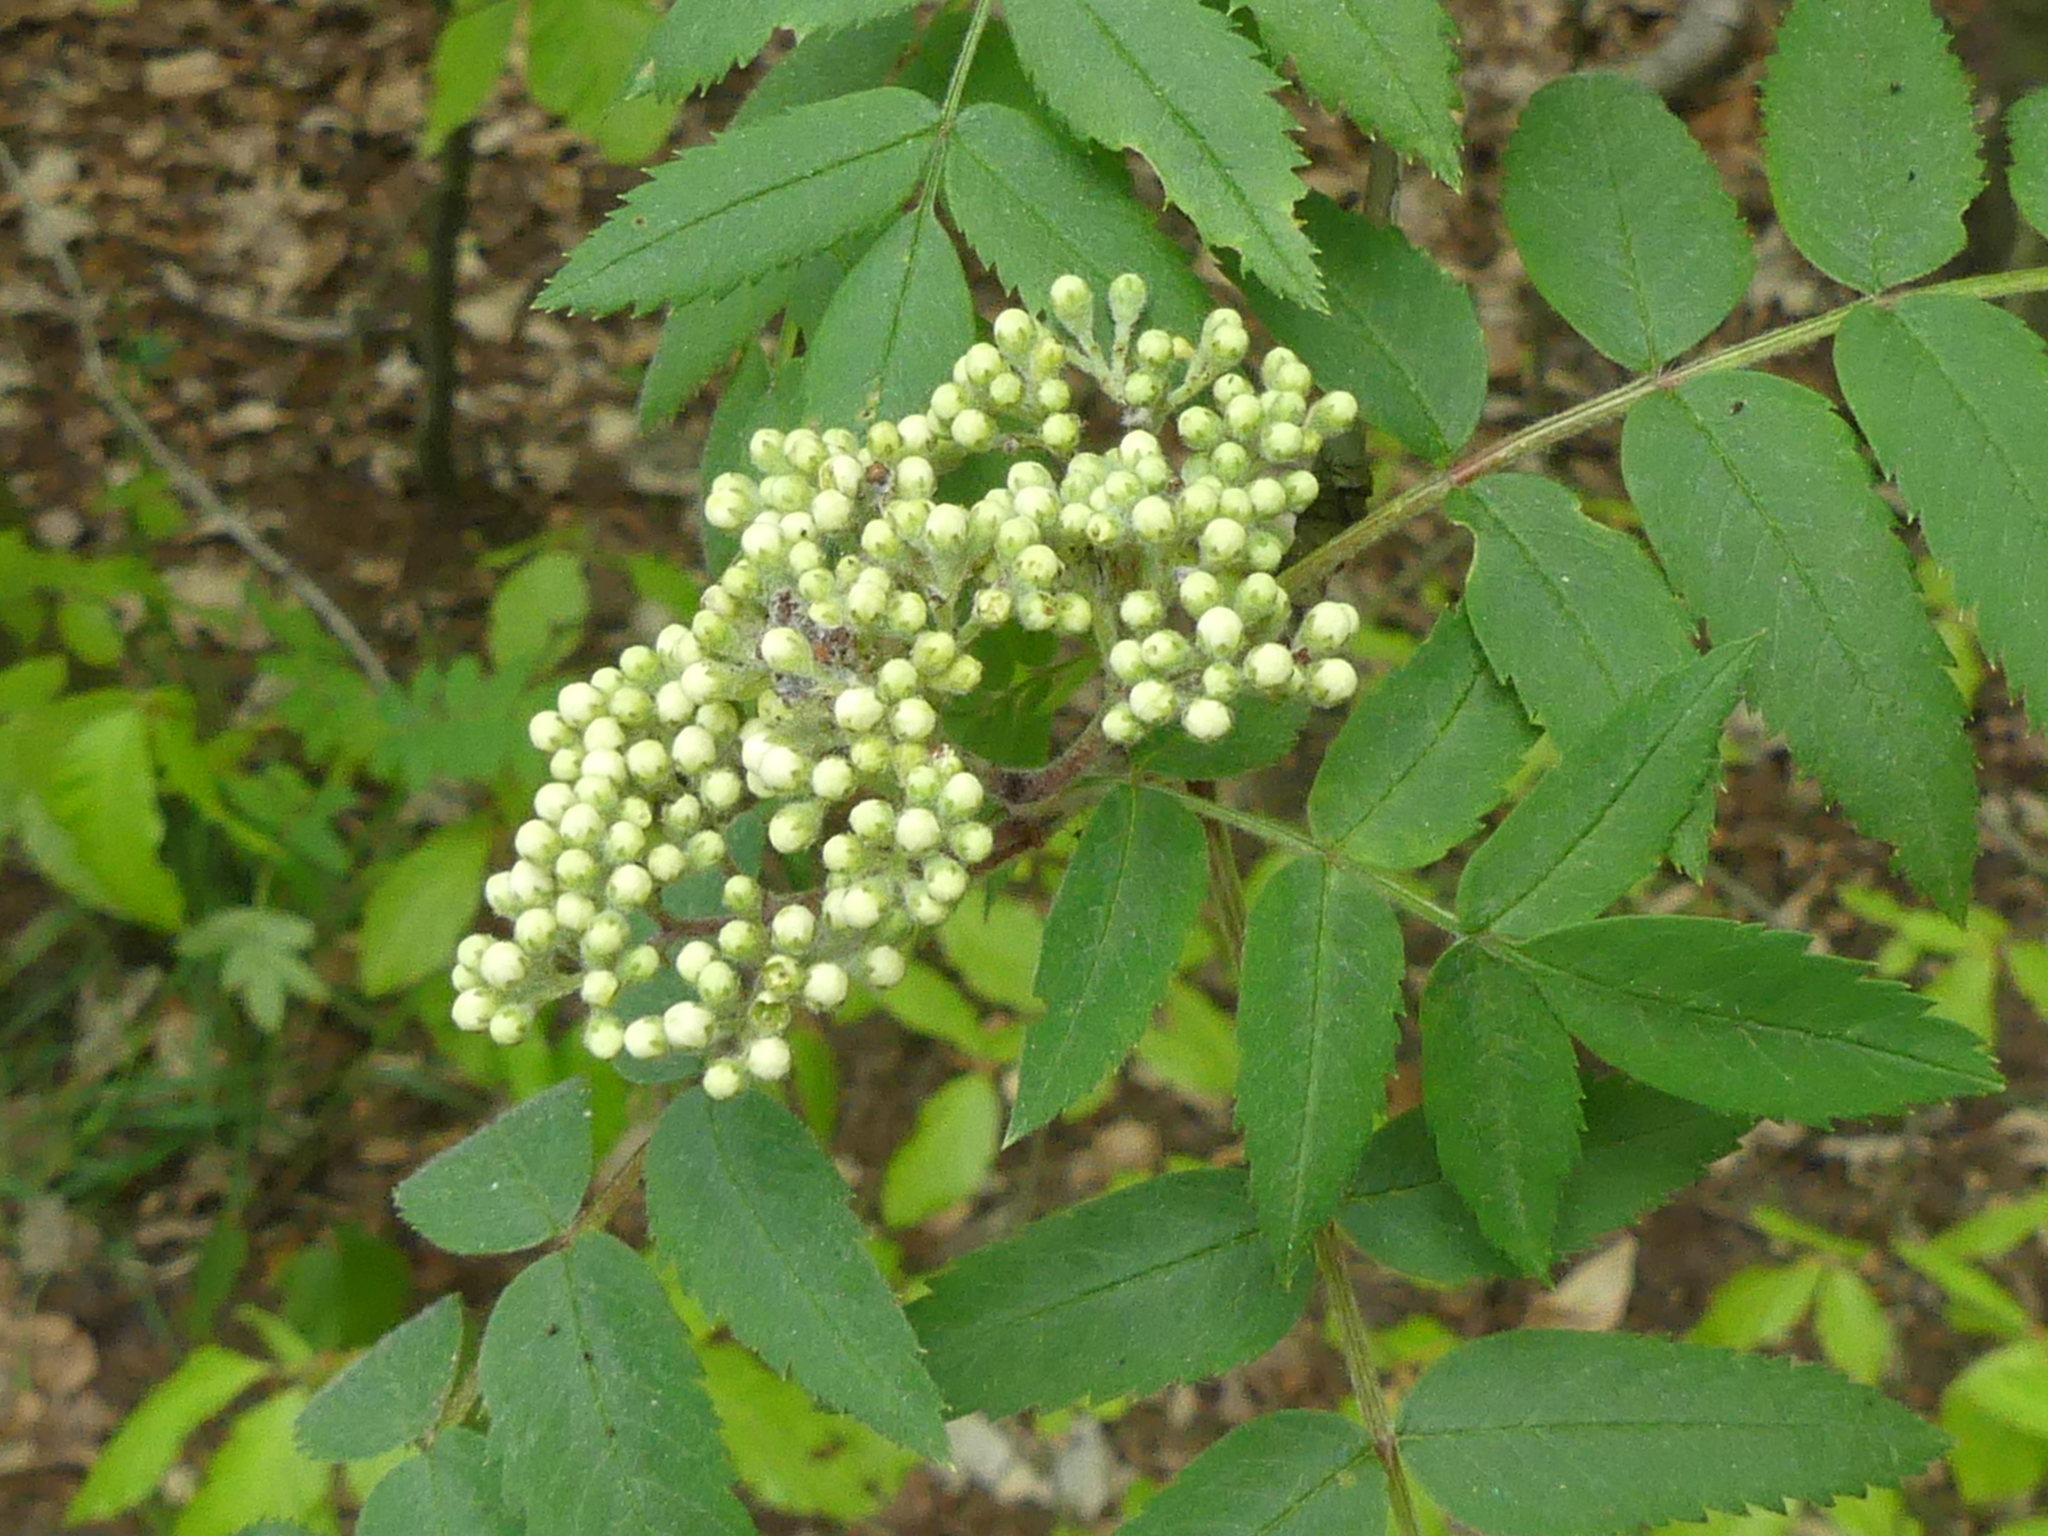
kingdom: Plantae
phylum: Tracheophyta
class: Magnoliopsida
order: Rosales
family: Rosaceae
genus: Sorbus
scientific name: Sorbus aucuparia
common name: Rowan
